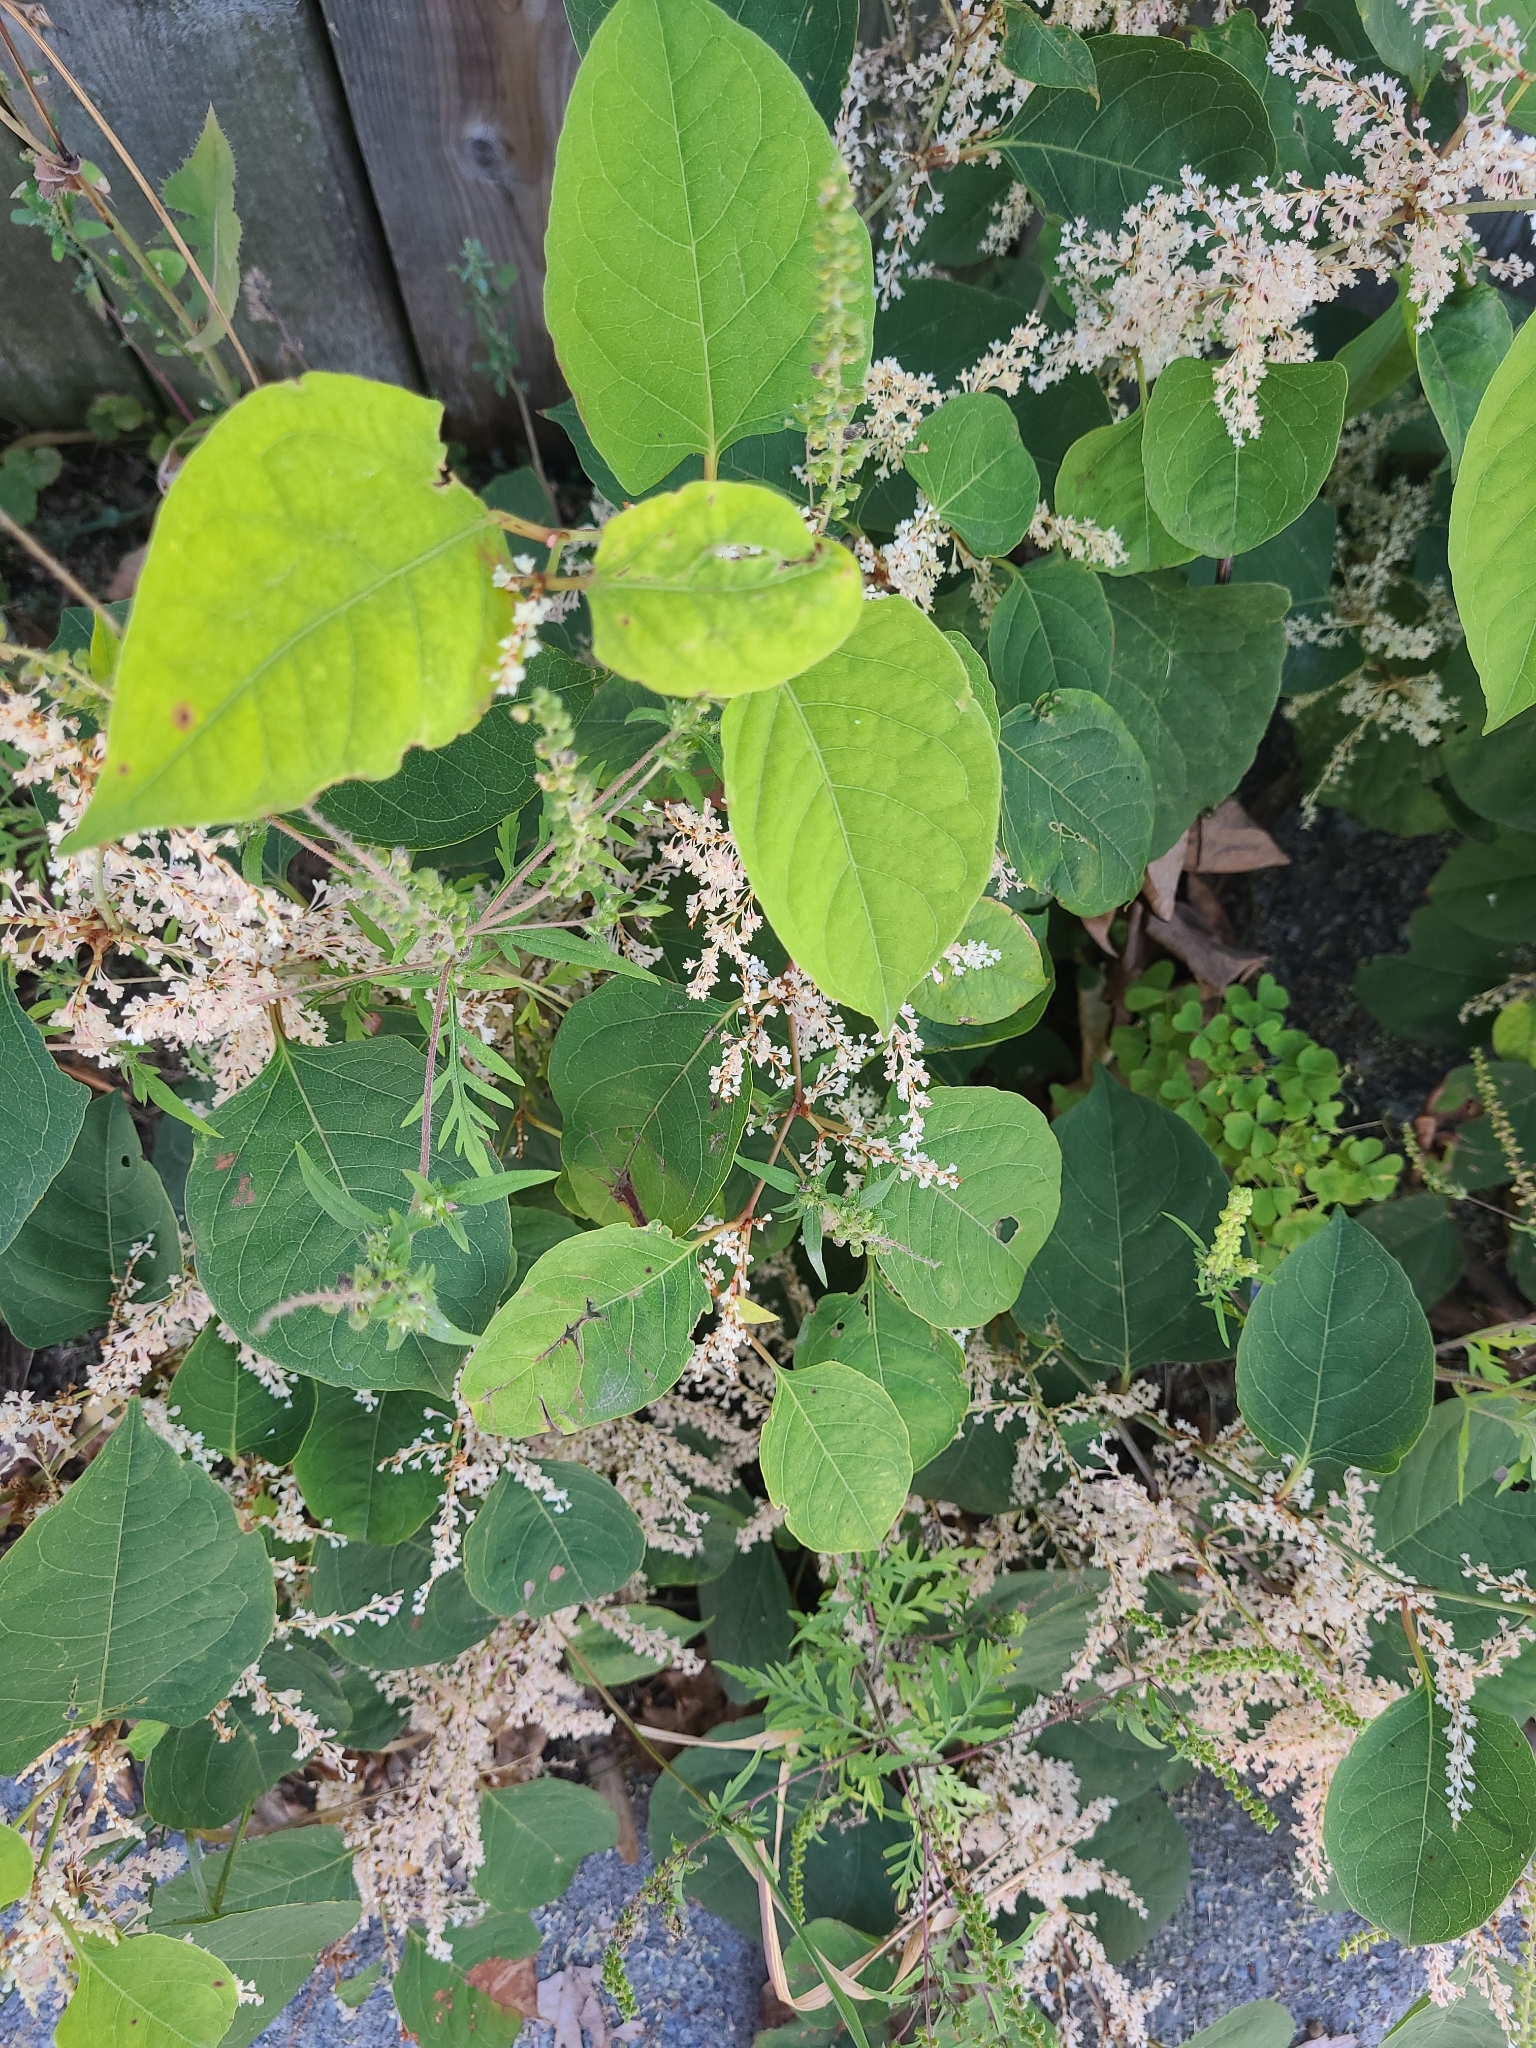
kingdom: Plantae
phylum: Tracheophyta
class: Magnoliopsida
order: Caryophyllales
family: Polygonaceae
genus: Reynoutria
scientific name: Reynoutria japonica
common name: Japanese knotweed
